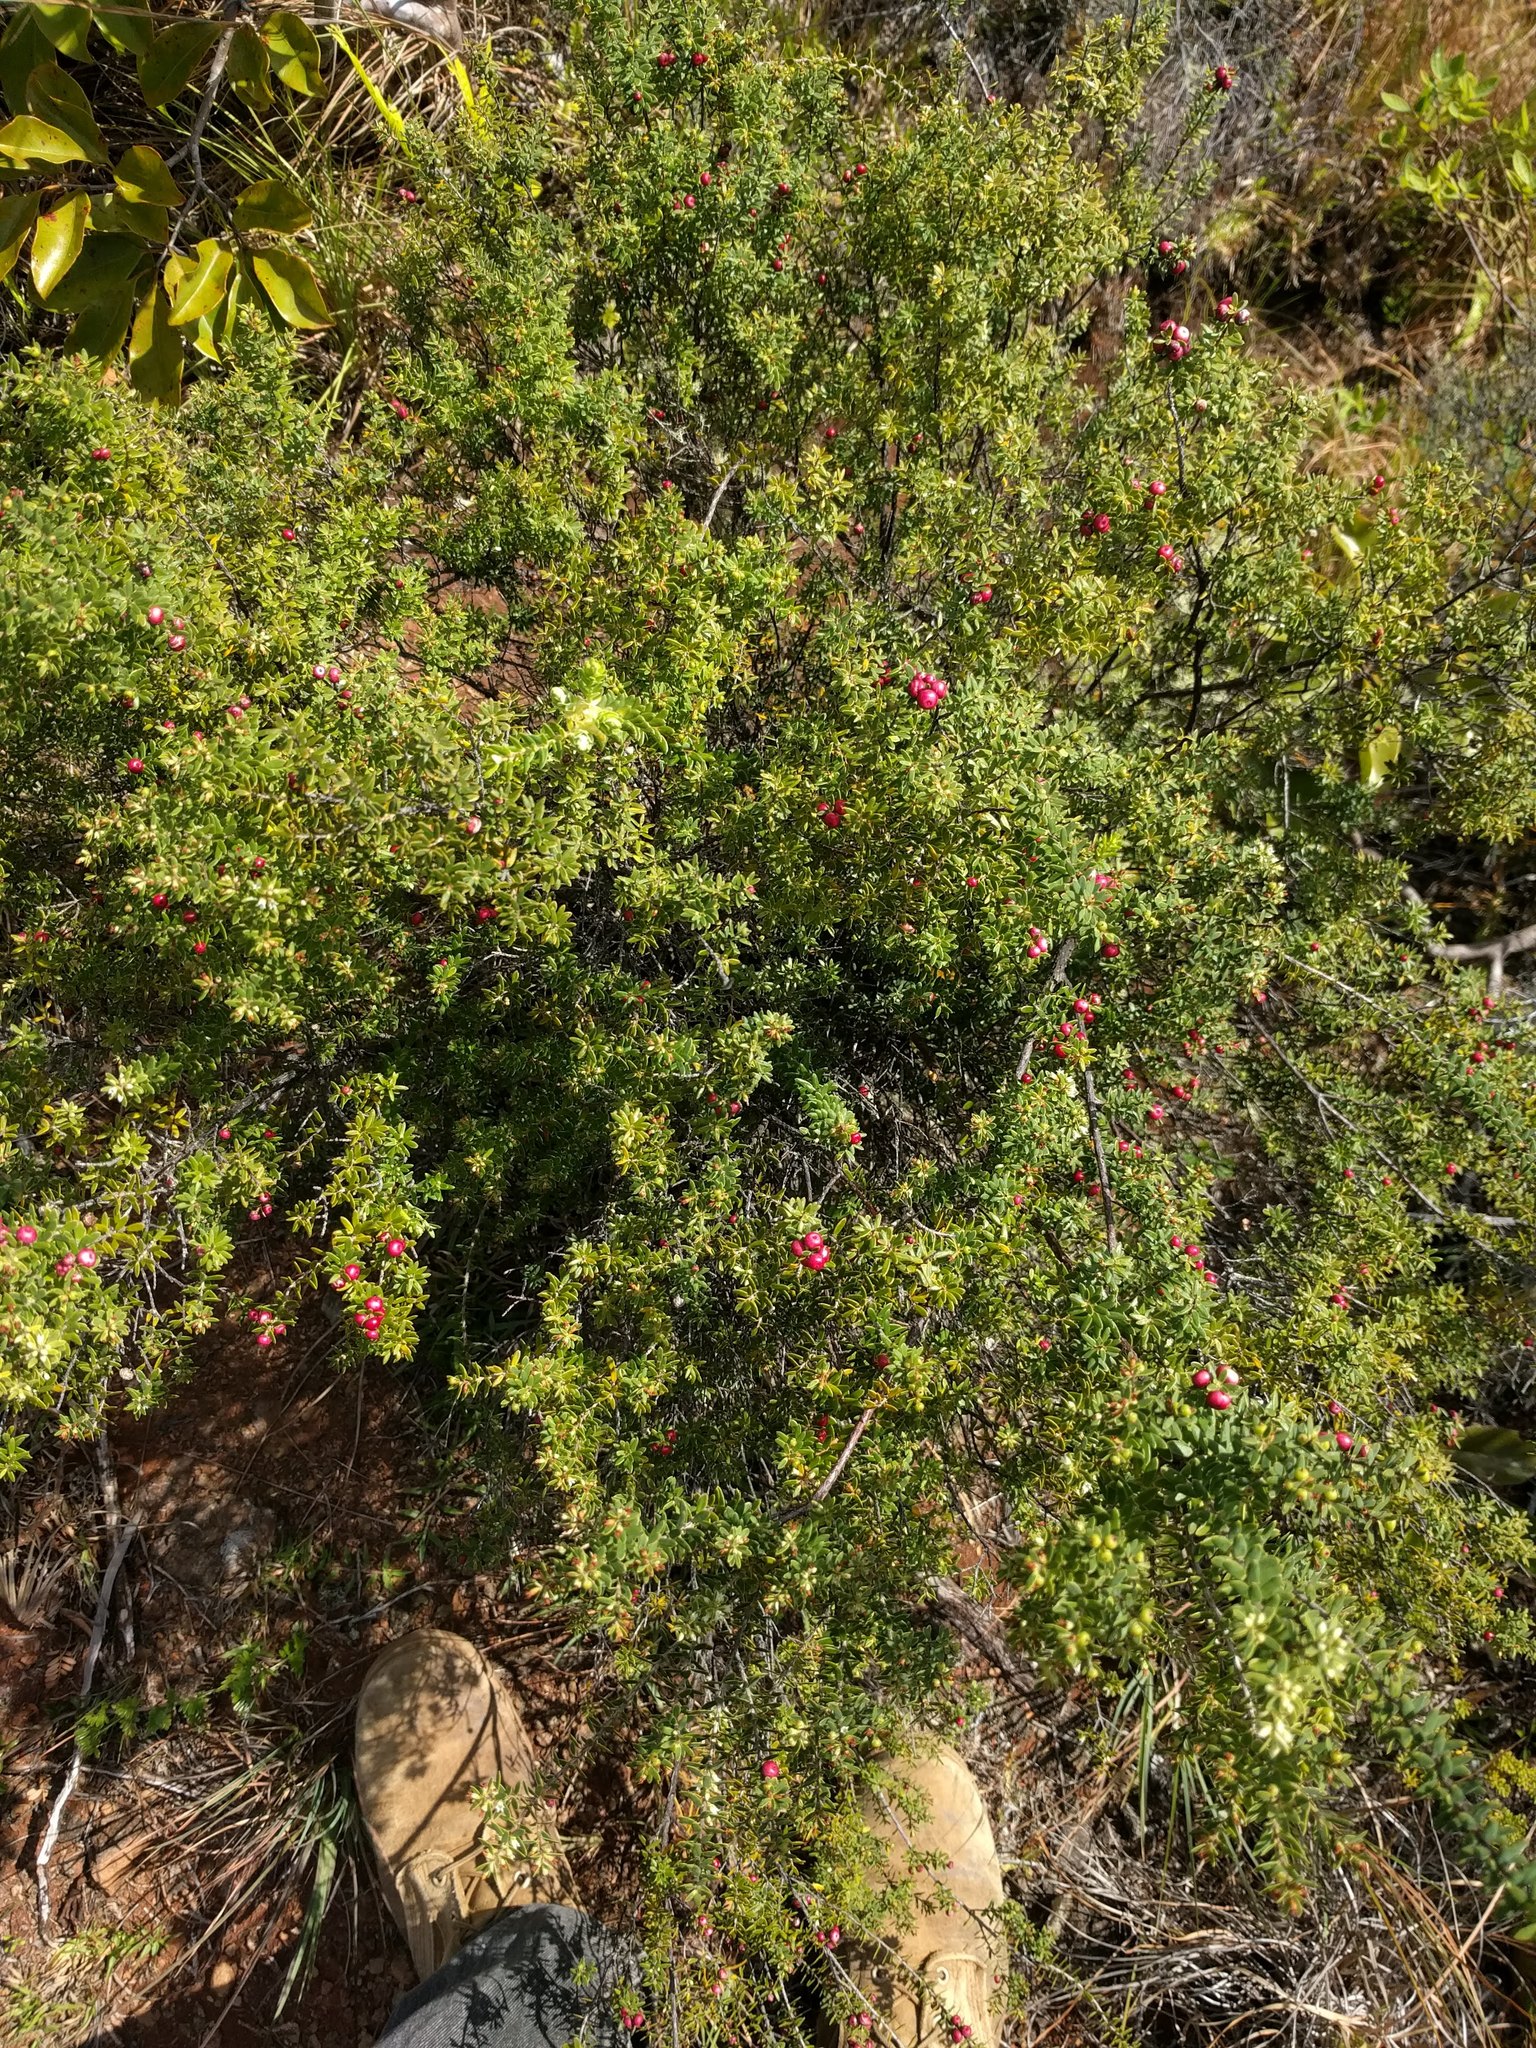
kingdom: Plantae
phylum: Tracheophyta
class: Magnoliopsida
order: Ericales
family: Ericaceae
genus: Leptecophylla
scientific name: Leptecophylla tameiameiae
